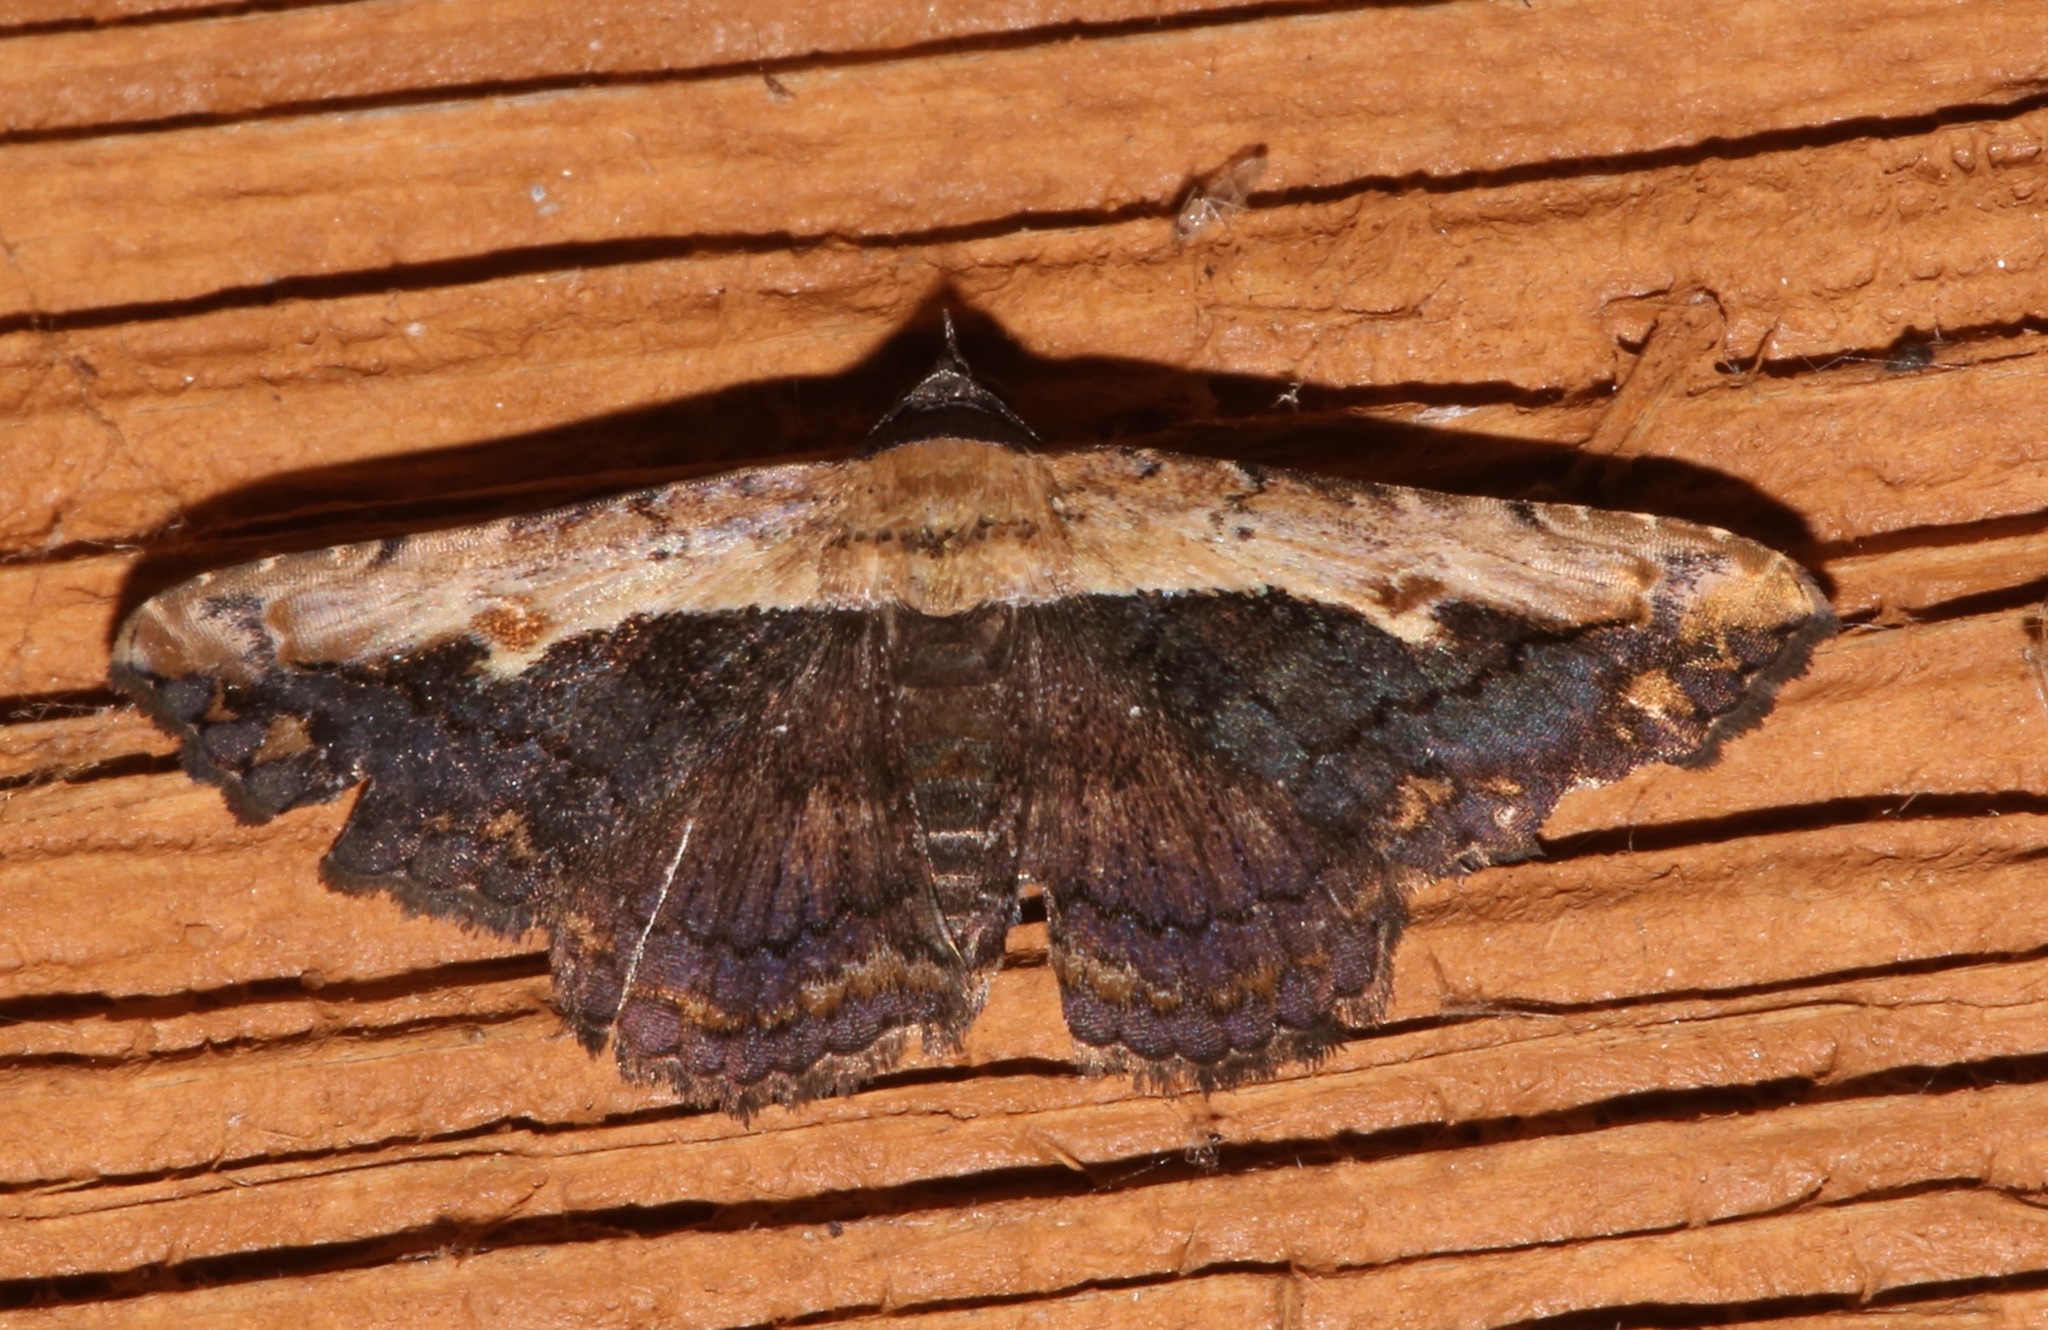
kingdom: Animalia
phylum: Arthropoda
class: Insecta
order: Lepidoptera
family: Erebidae
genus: Selenisa
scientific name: Selenisa sueroides
